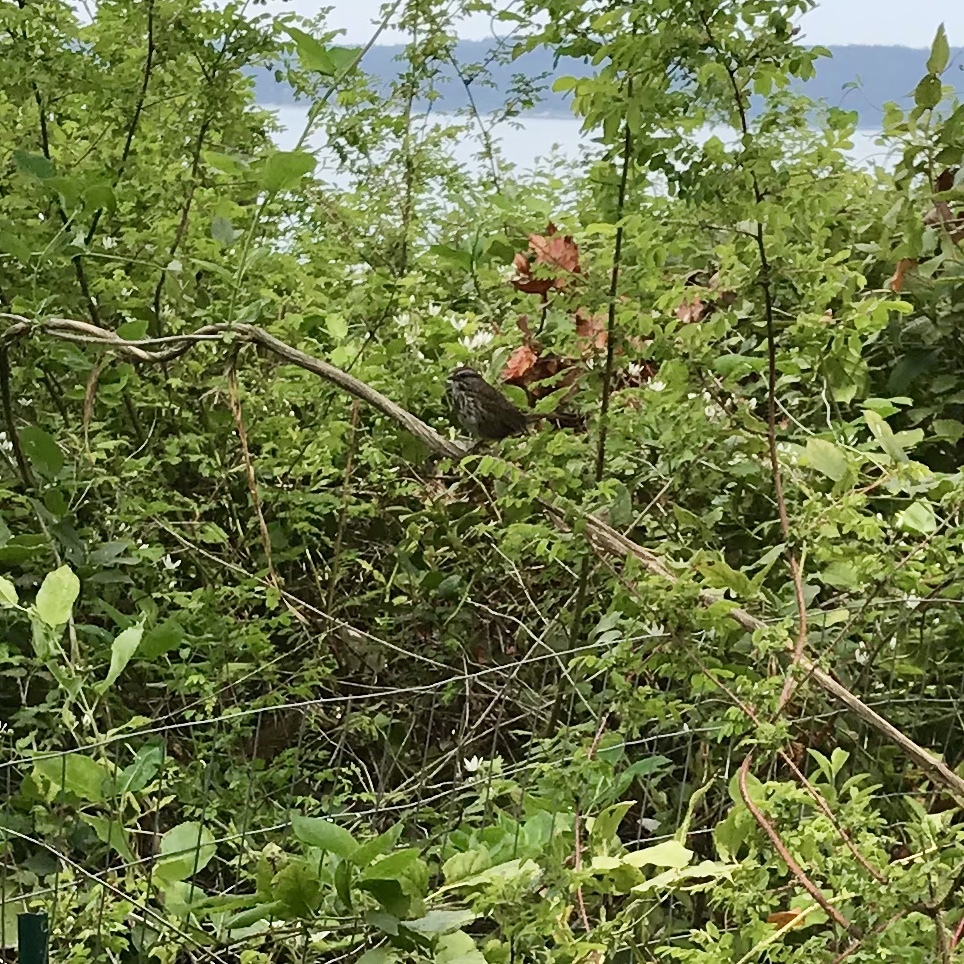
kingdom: Animalia
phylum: Chordata
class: Aves
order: Passeriformes
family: Passerellidae
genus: Melospiza
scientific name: Melospiza melodia
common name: Song sparrow
